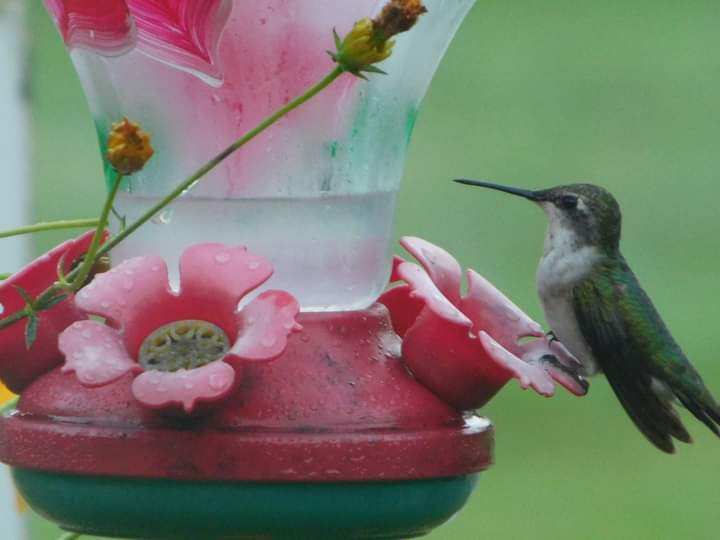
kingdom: Animalia
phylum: Chordata
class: Aves
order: Apodiformes
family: Trochilidae
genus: Archilochus
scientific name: Archilochus colubris
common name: Ruby-throated hummingbird
